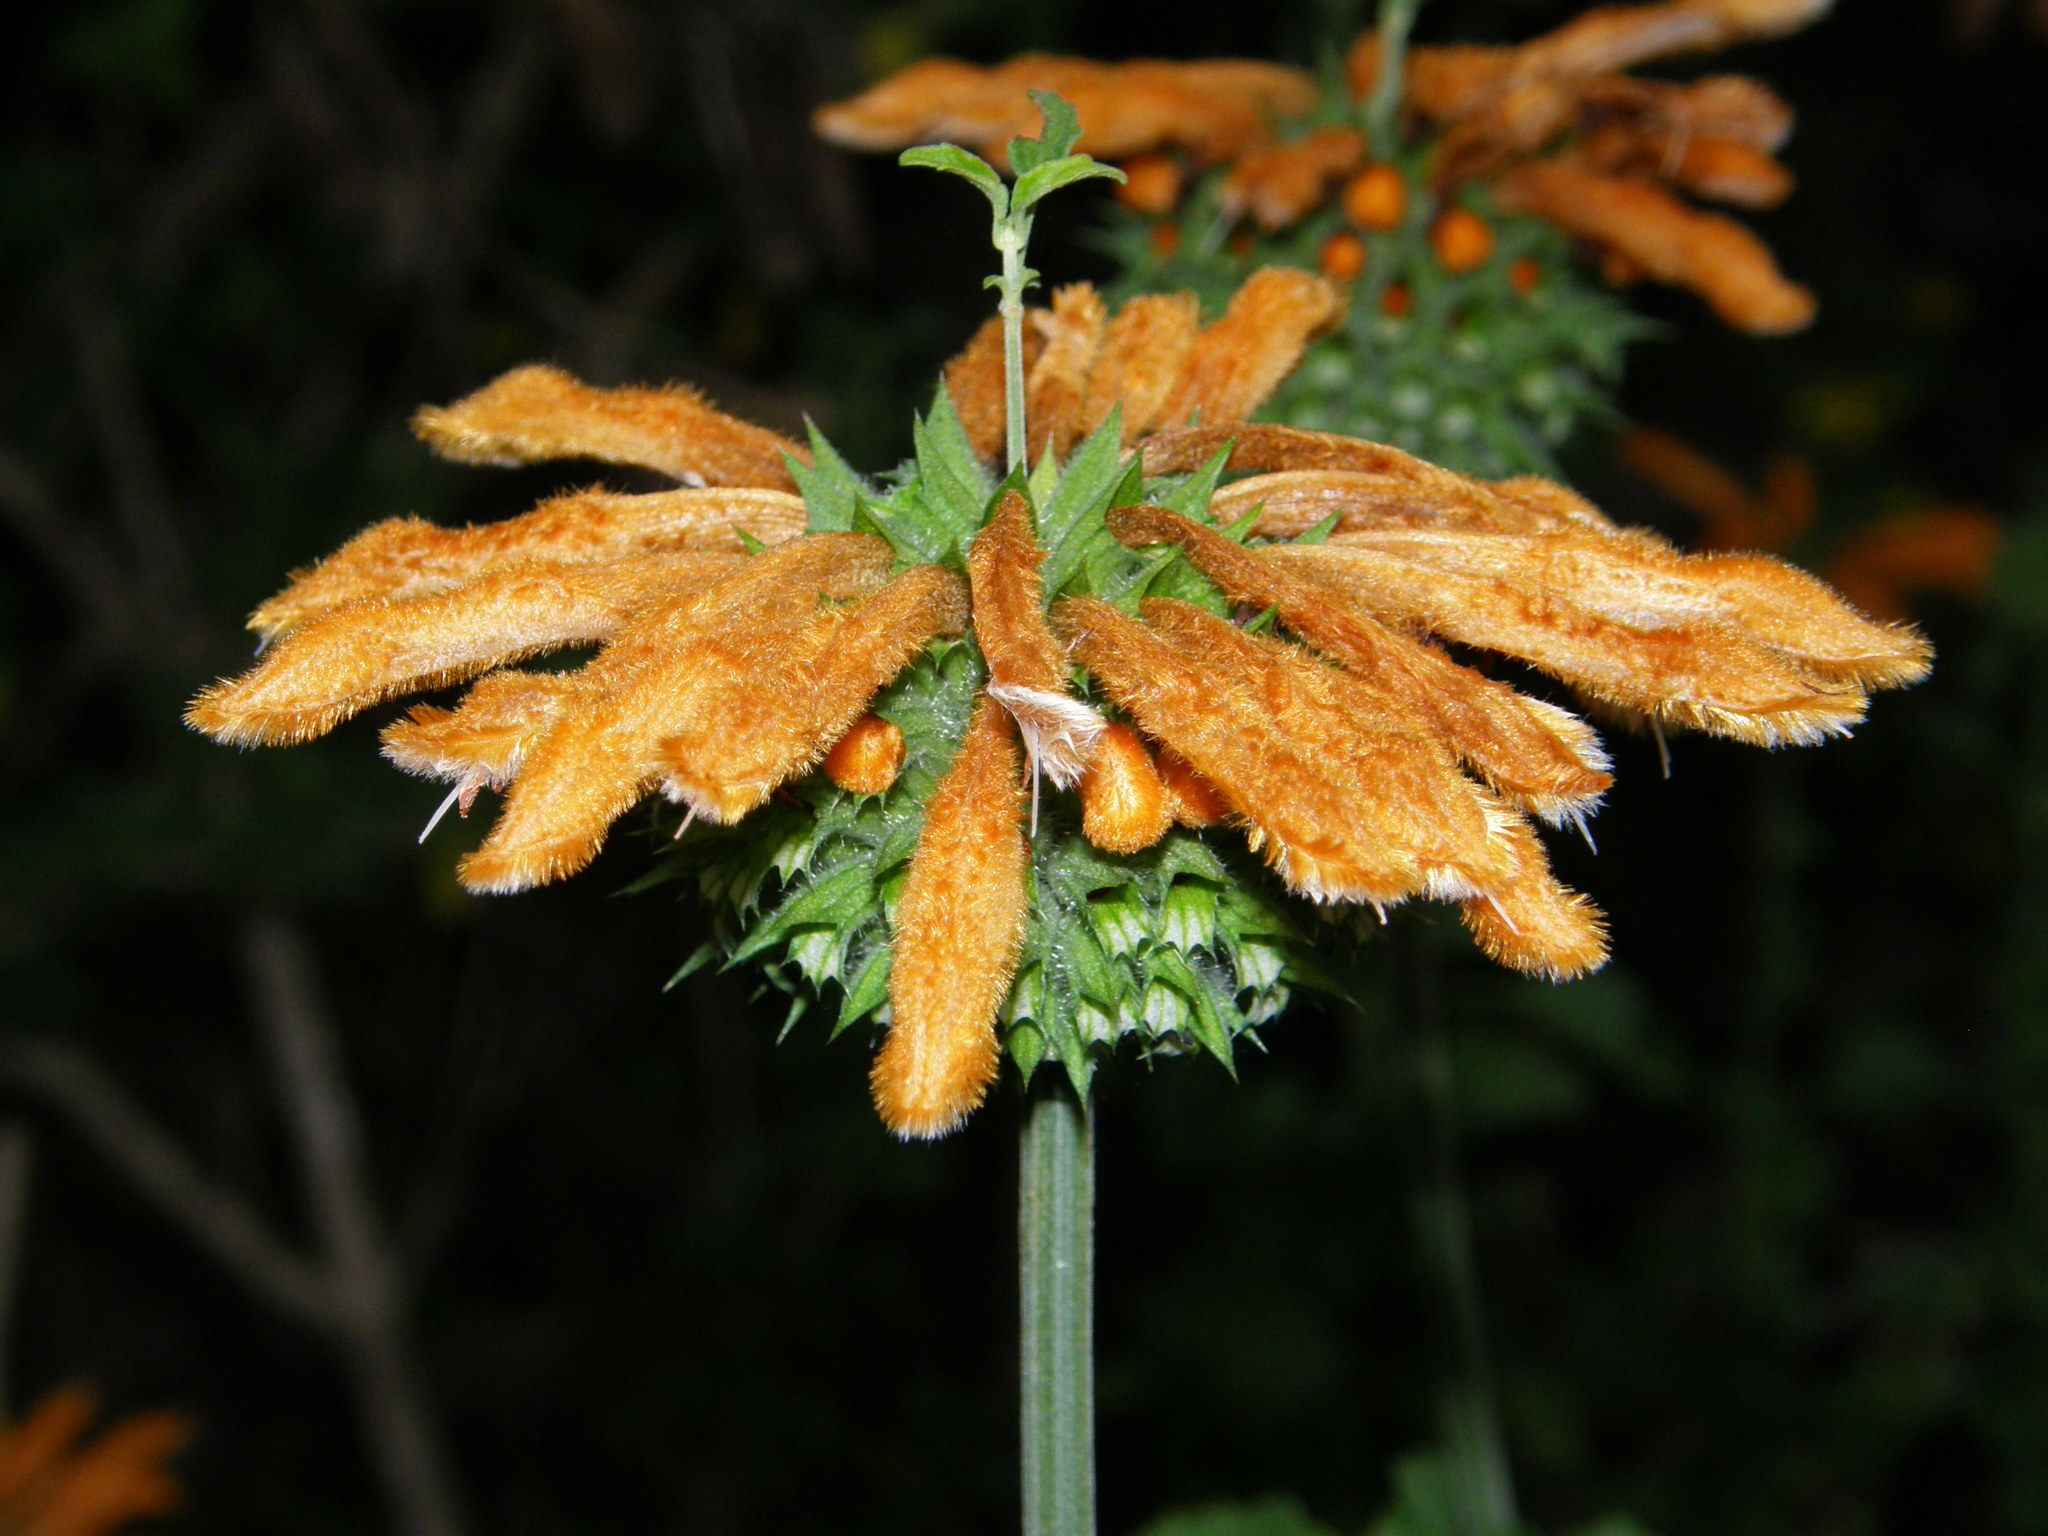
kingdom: Plantae
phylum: Tracheophyta
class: Magnoliopsida
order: Lamiales
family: Lamiaceae
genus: Leonotis
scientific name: Leonotis ocymifolia
